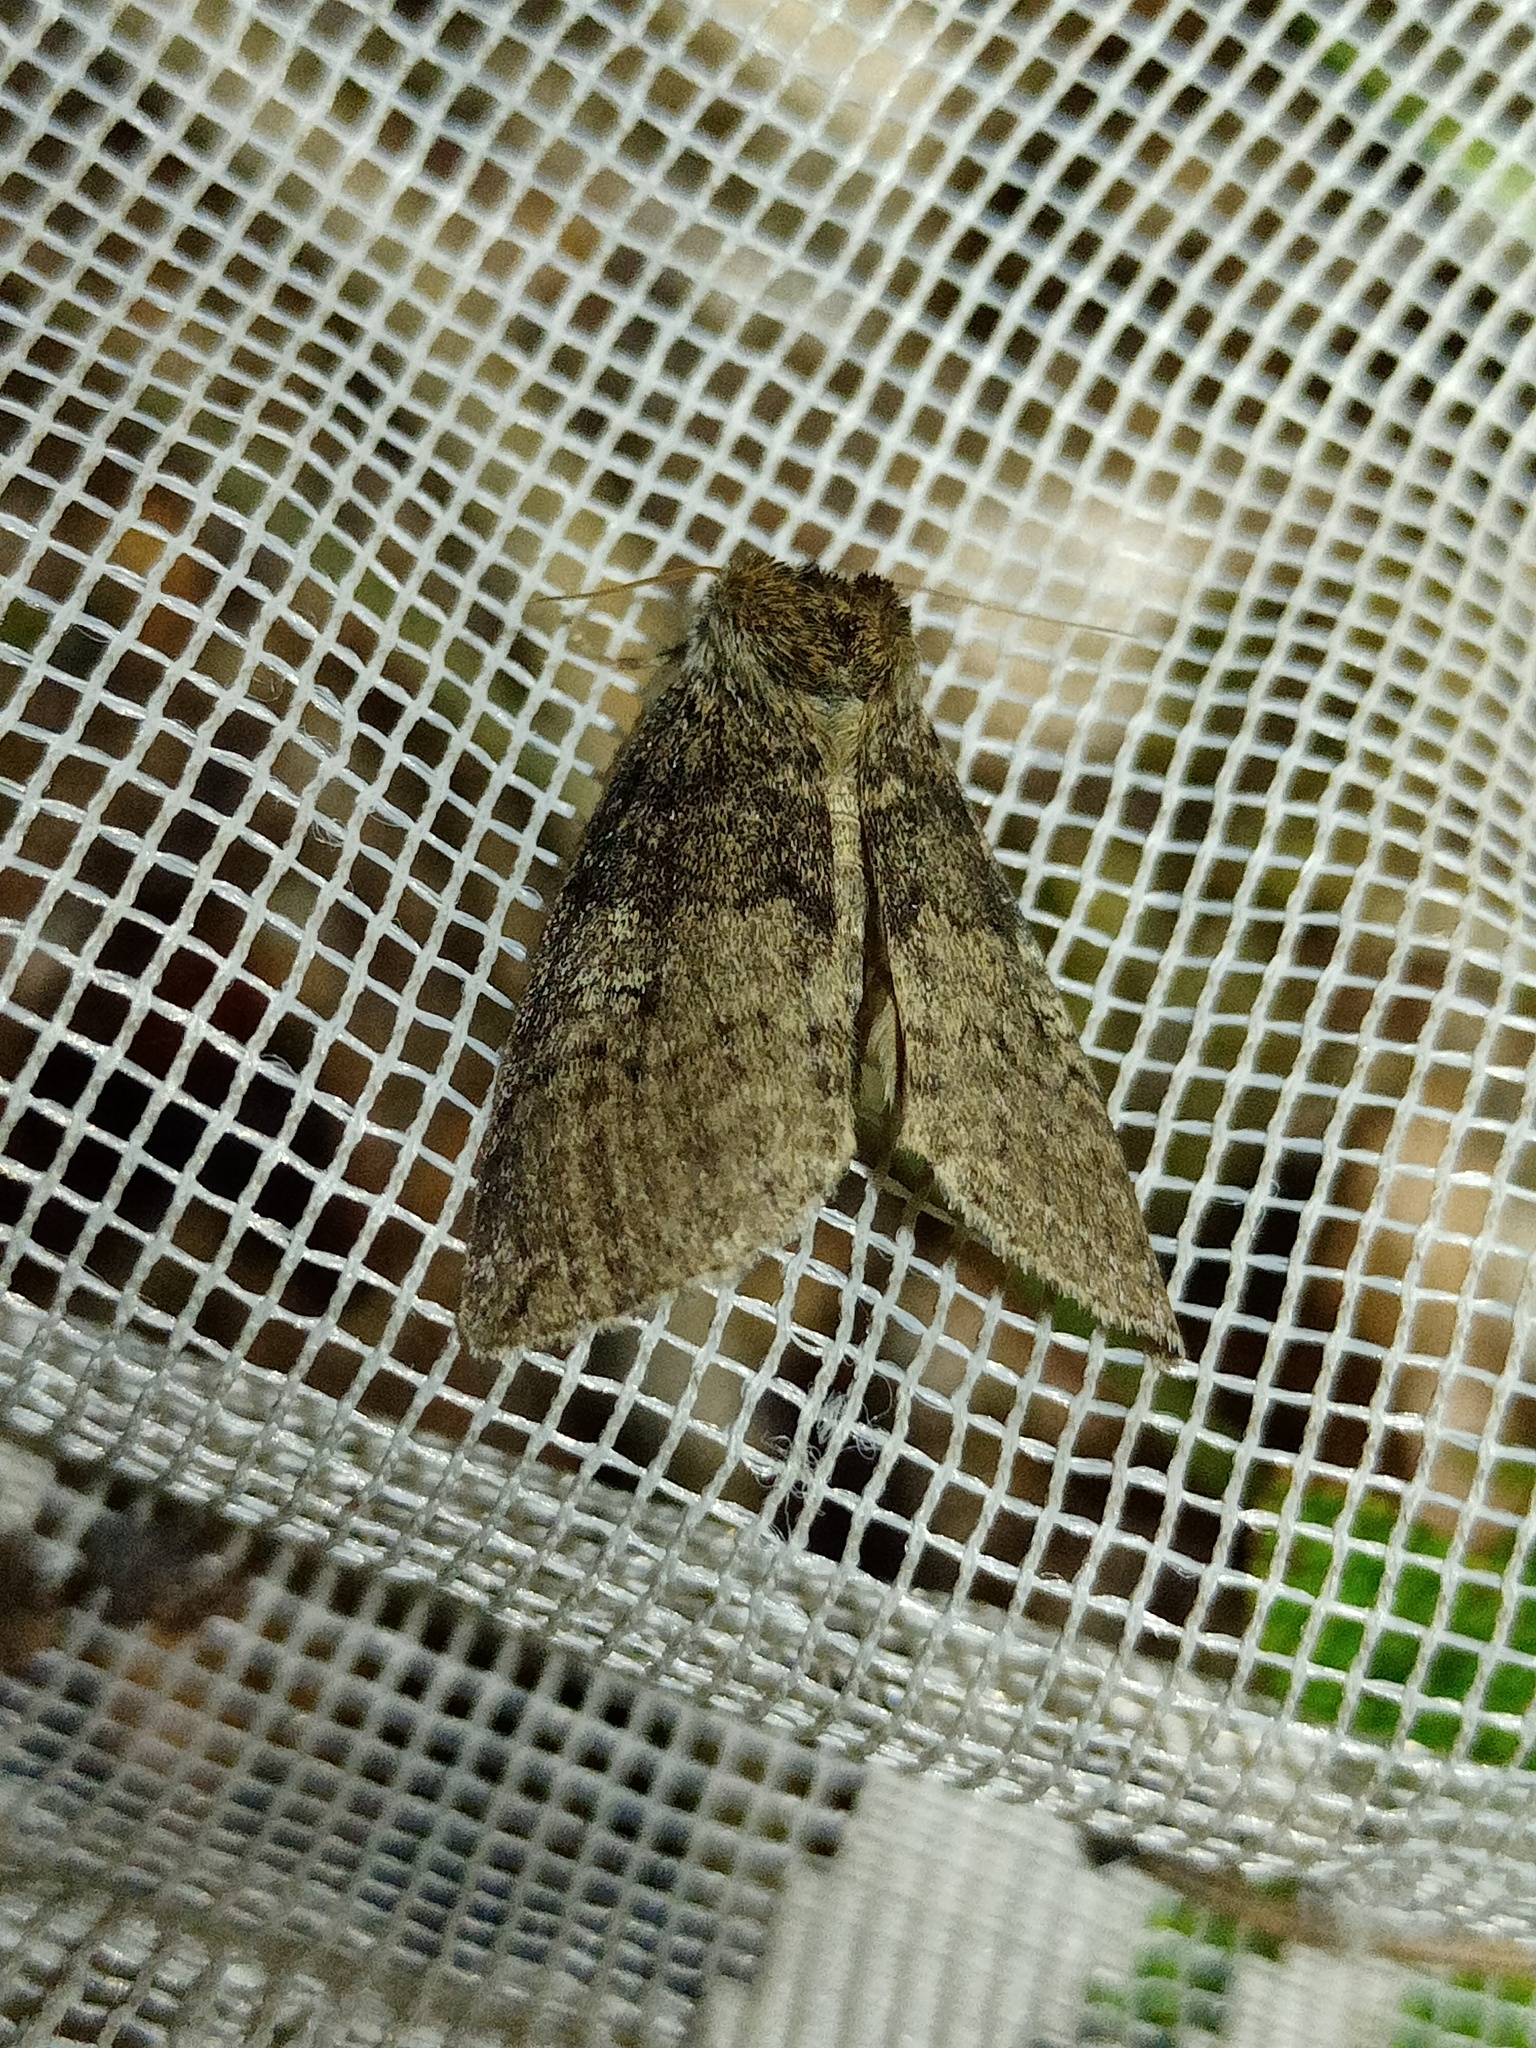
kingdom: Animalia
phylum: Arthropoda
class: Insecta
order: Lepidoptera
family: Drepanidae
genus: Tethea
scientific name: Tethea or
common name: Poplar lutestring
